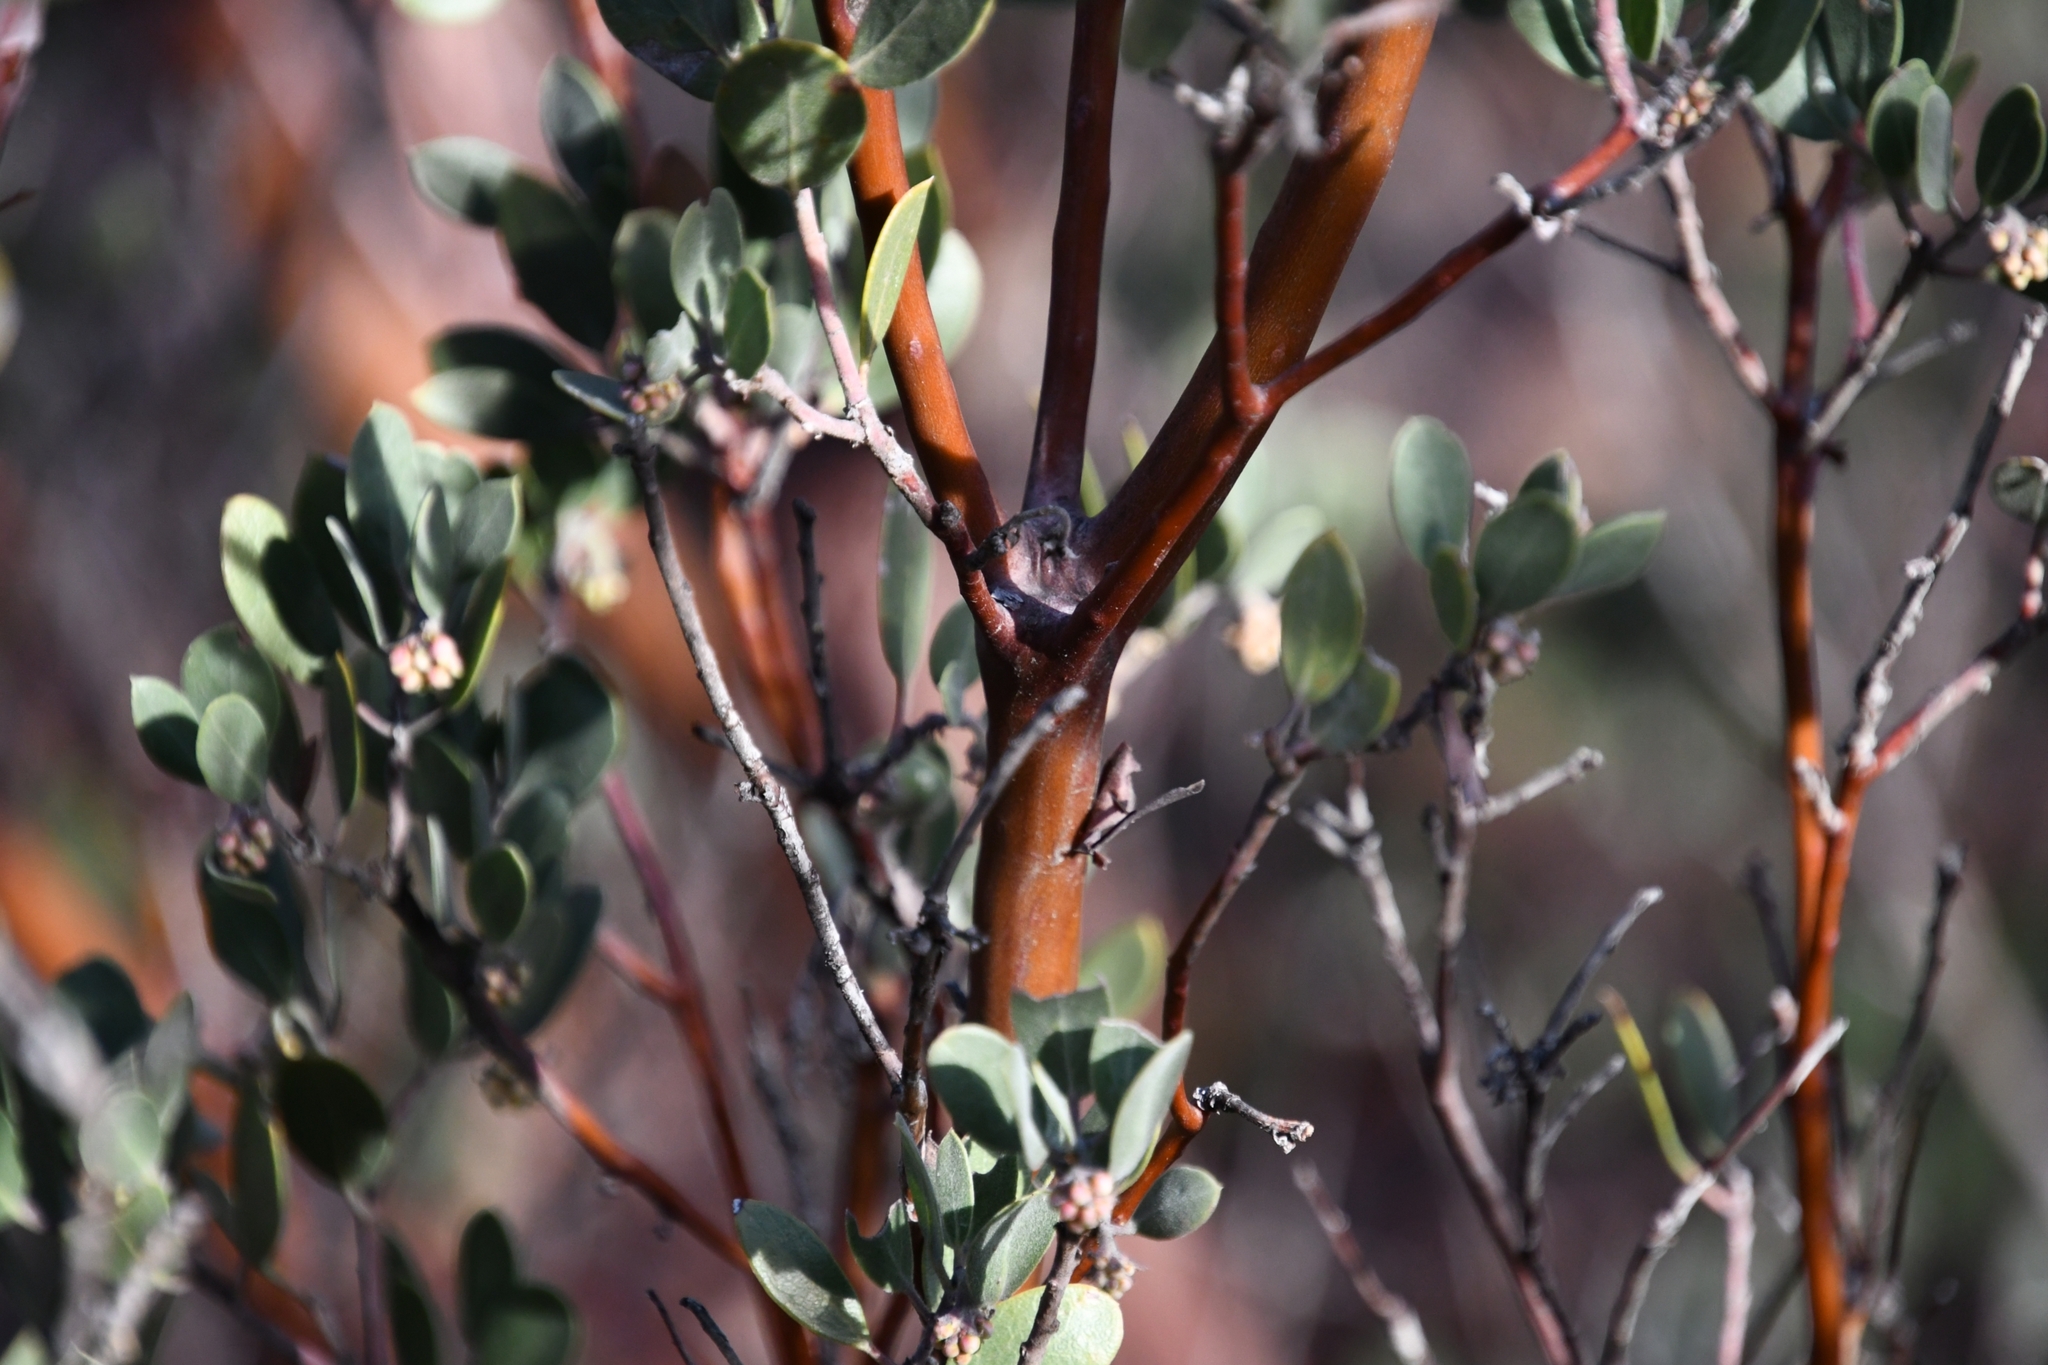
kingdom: Plantae
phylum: Tracheophyta
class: Magnoliopsida
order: Ericales
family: Ericaceae
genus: Arctostaphylos
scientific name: Arctostaphylos pungens
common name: Mexican manzanita
